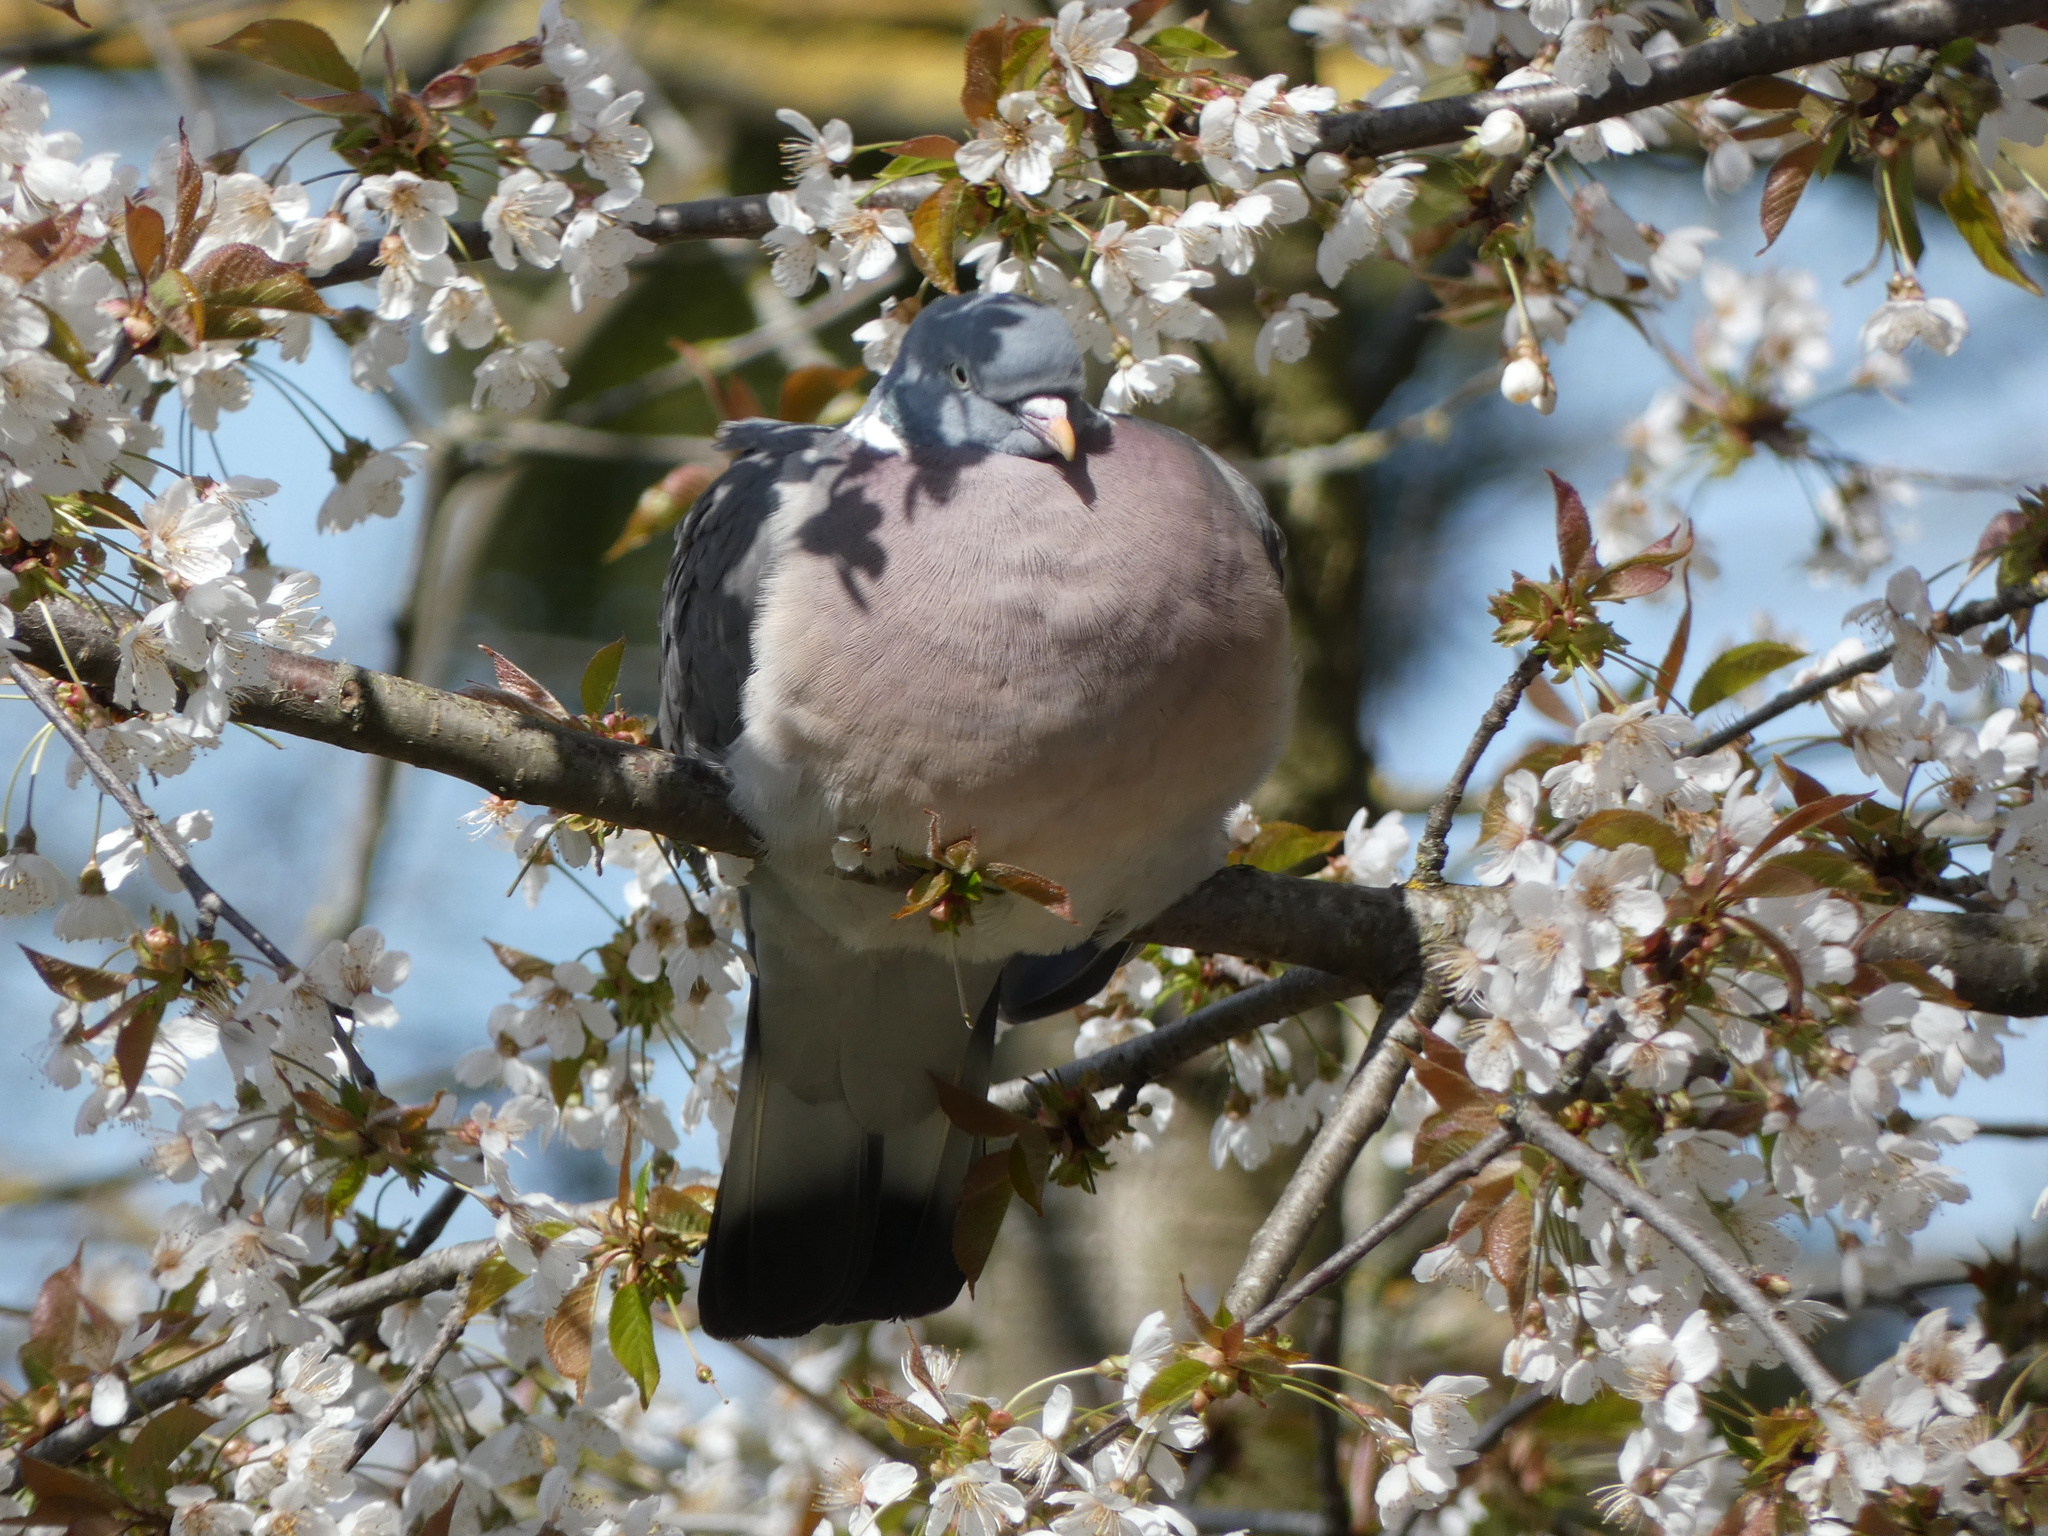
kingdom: Animalia
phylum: Chordata
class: Aves
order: Columbiformes
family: Columbidae
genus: Columba
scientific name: Columba palumbus
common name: Common wood pigeon
